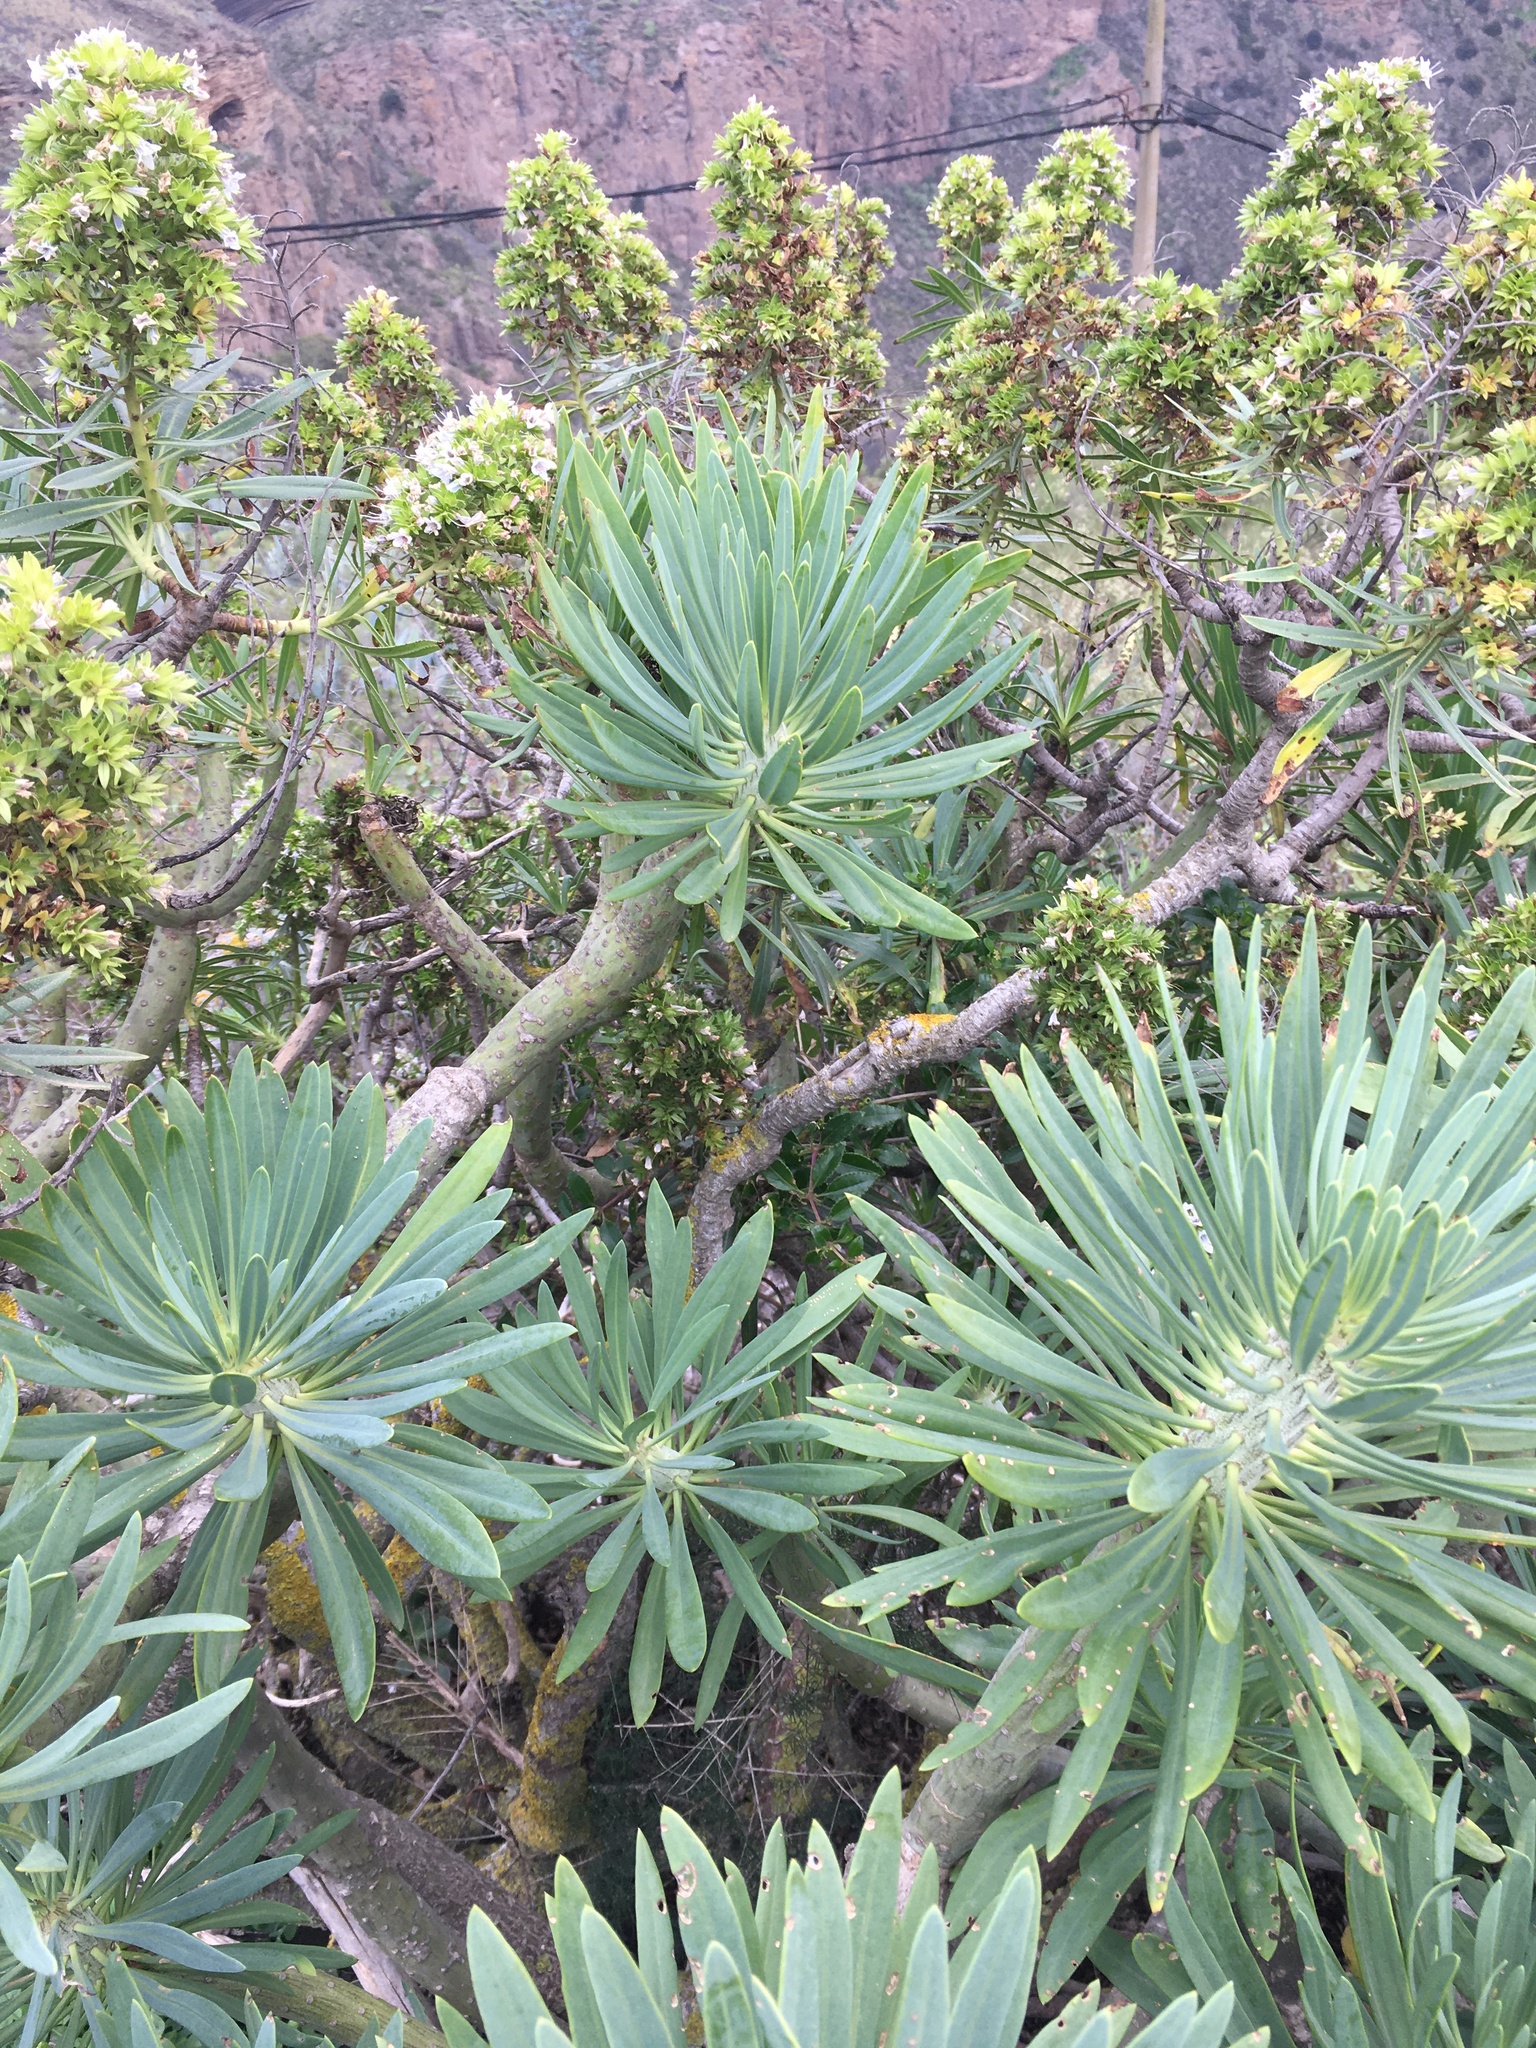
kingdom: Plantae
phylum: Tracheophyta
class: Magnoliopsida
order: Asterales
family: Asteraceae
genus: Kleinia
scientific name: Kleinia neriifolia
